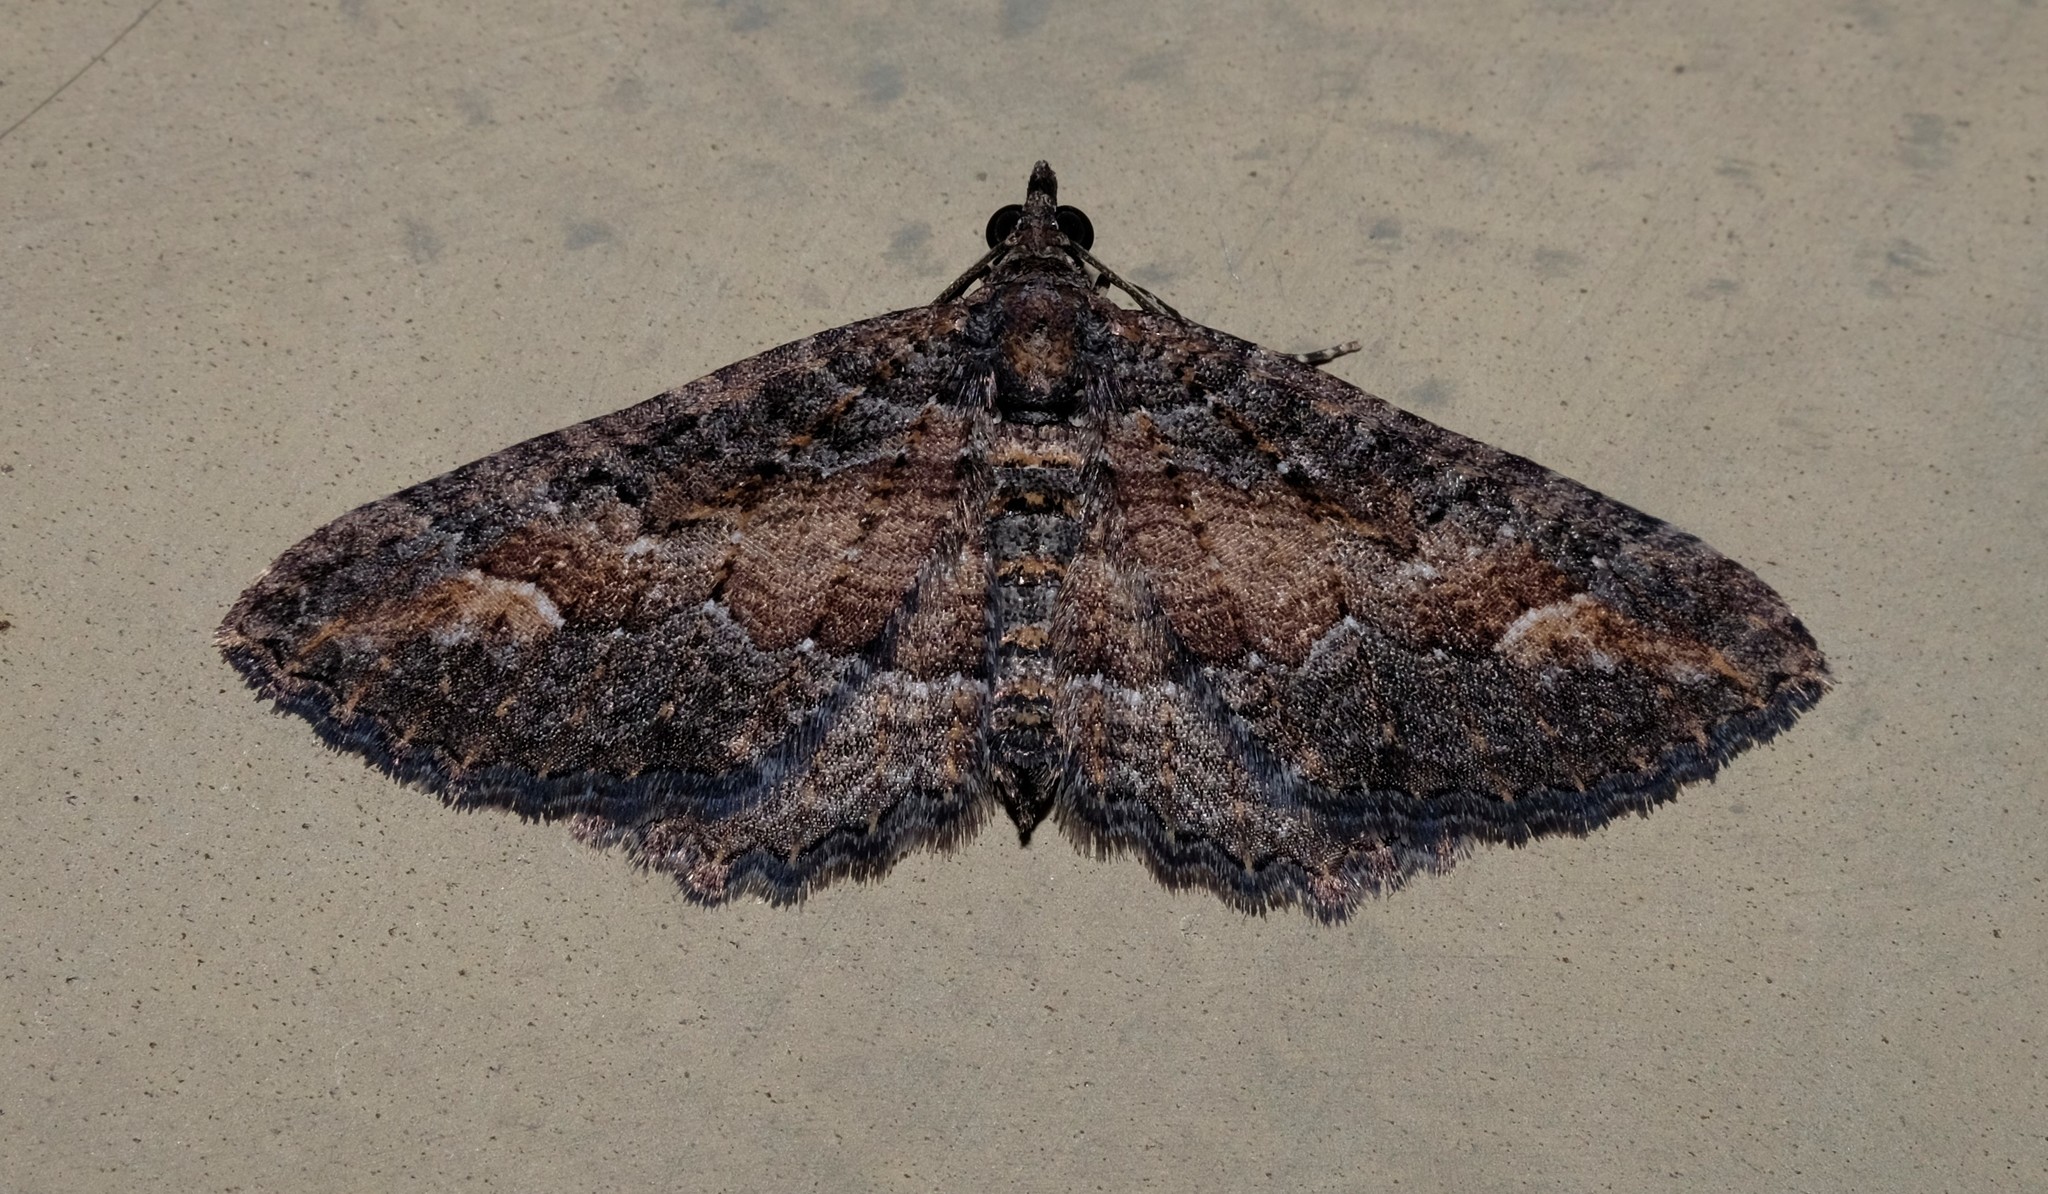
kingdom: Animalia
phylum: Arthropoda
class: Insecta
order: Lepidoptera
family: Geometridae
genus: Eupithecia
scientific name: Eupithecia Eucymatoge scotodes
